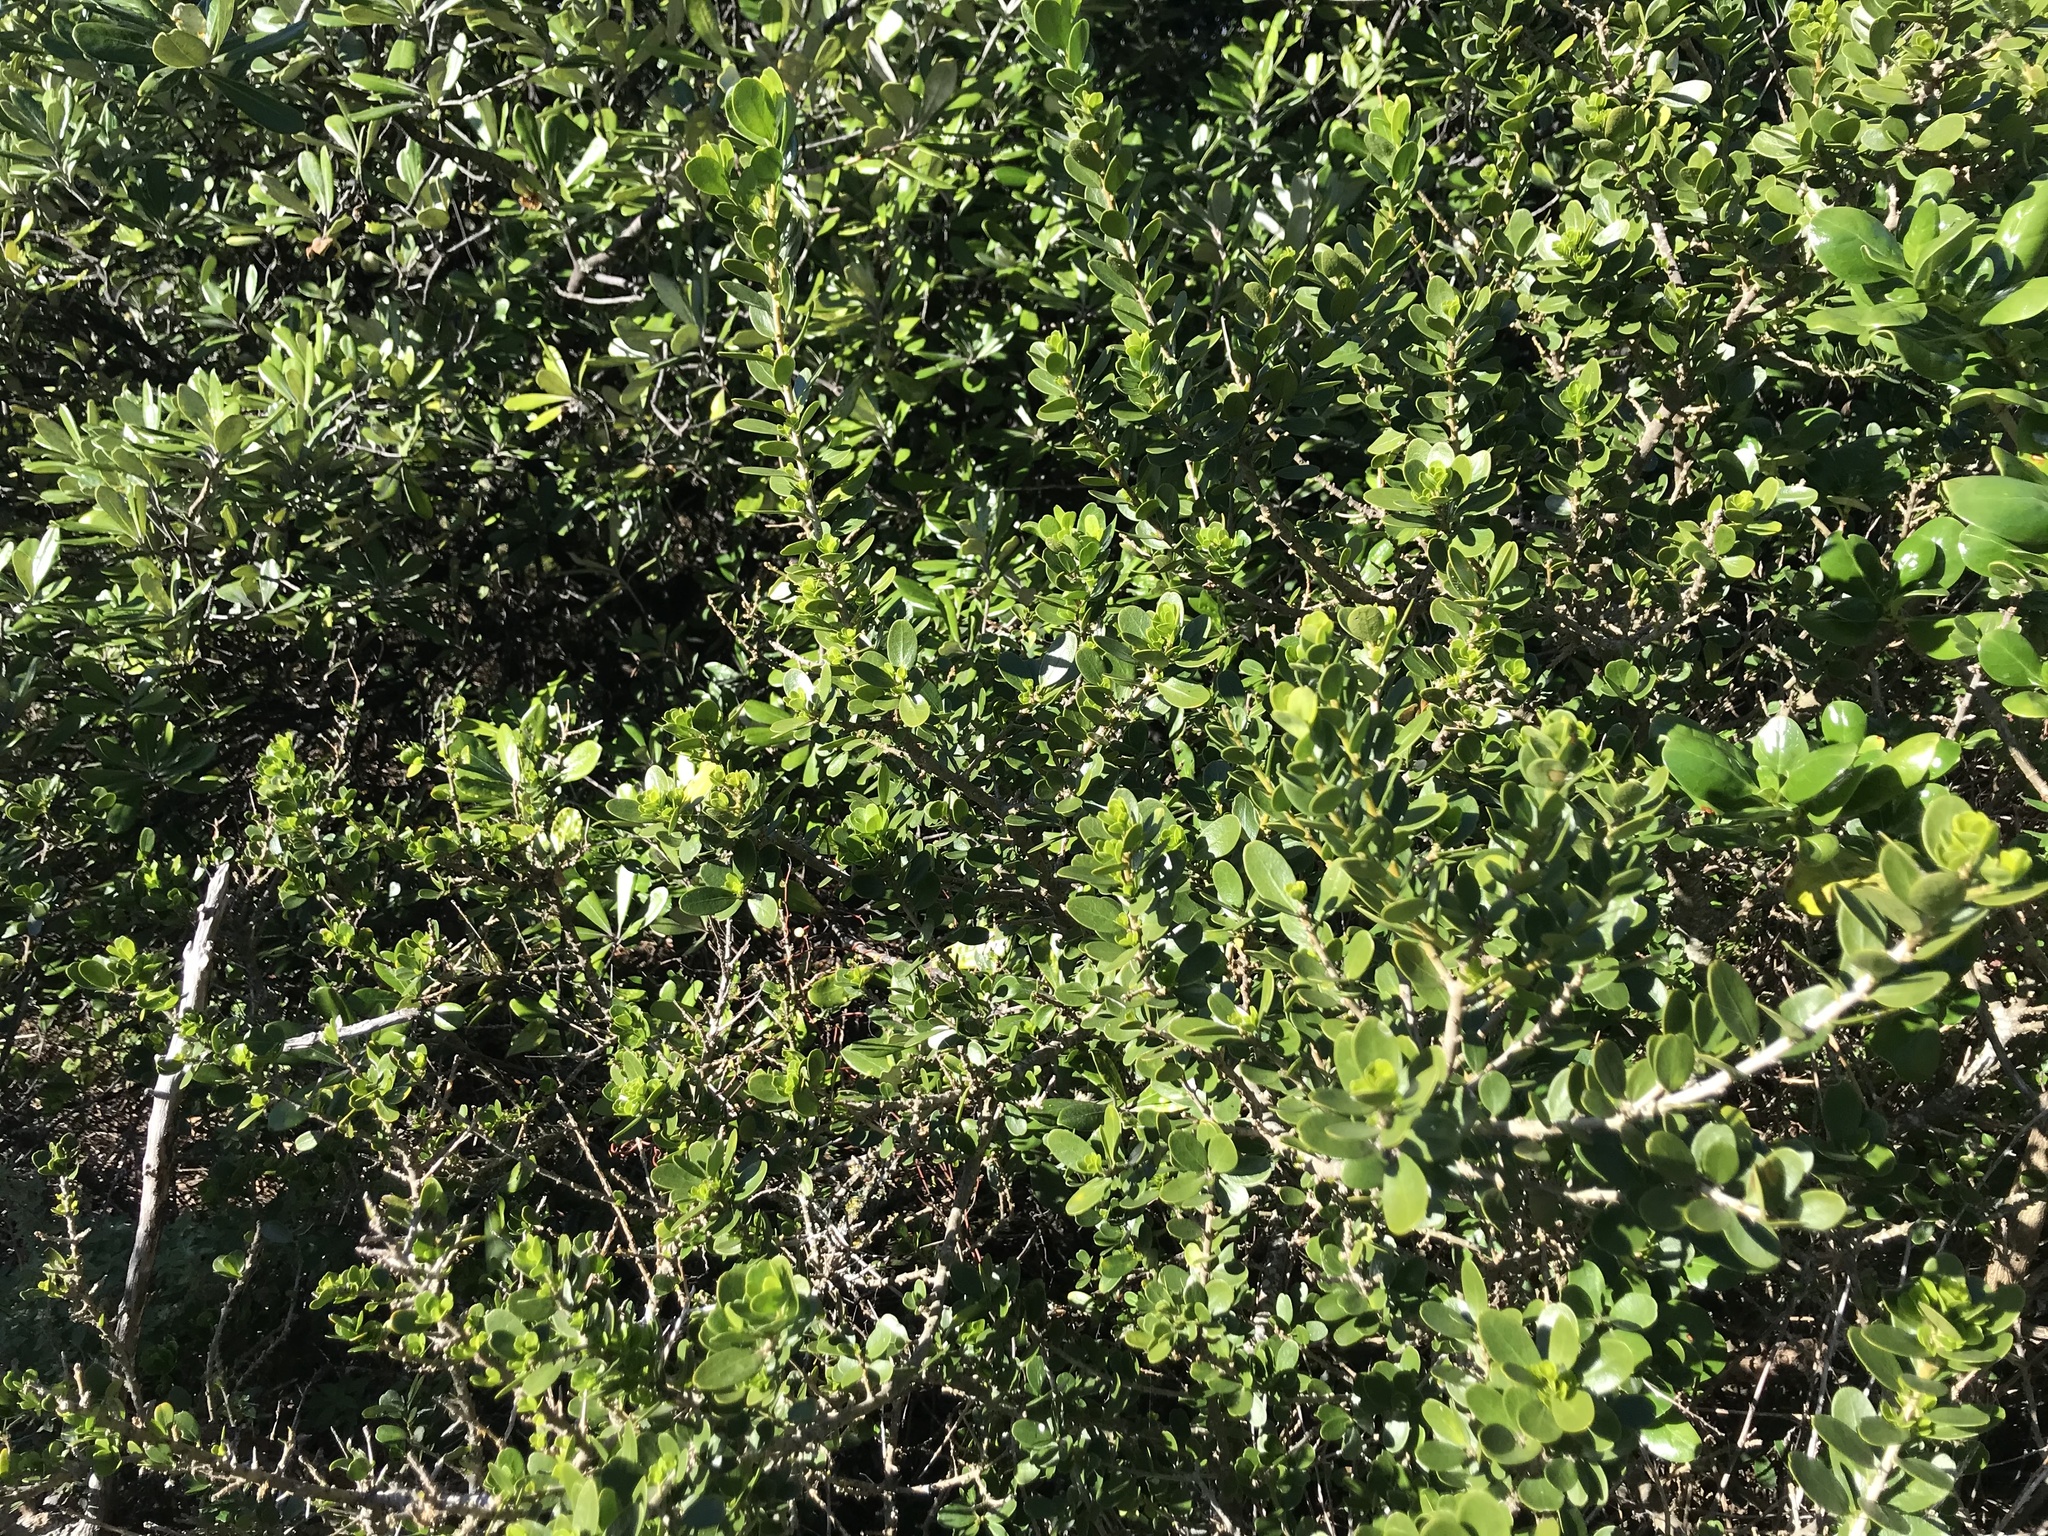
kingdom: Plantae
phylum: Tracheophyta
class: Magnoliopsida
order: Malpighiales
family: Violaceae
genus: Melicytus
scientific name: Melicytus orarius
